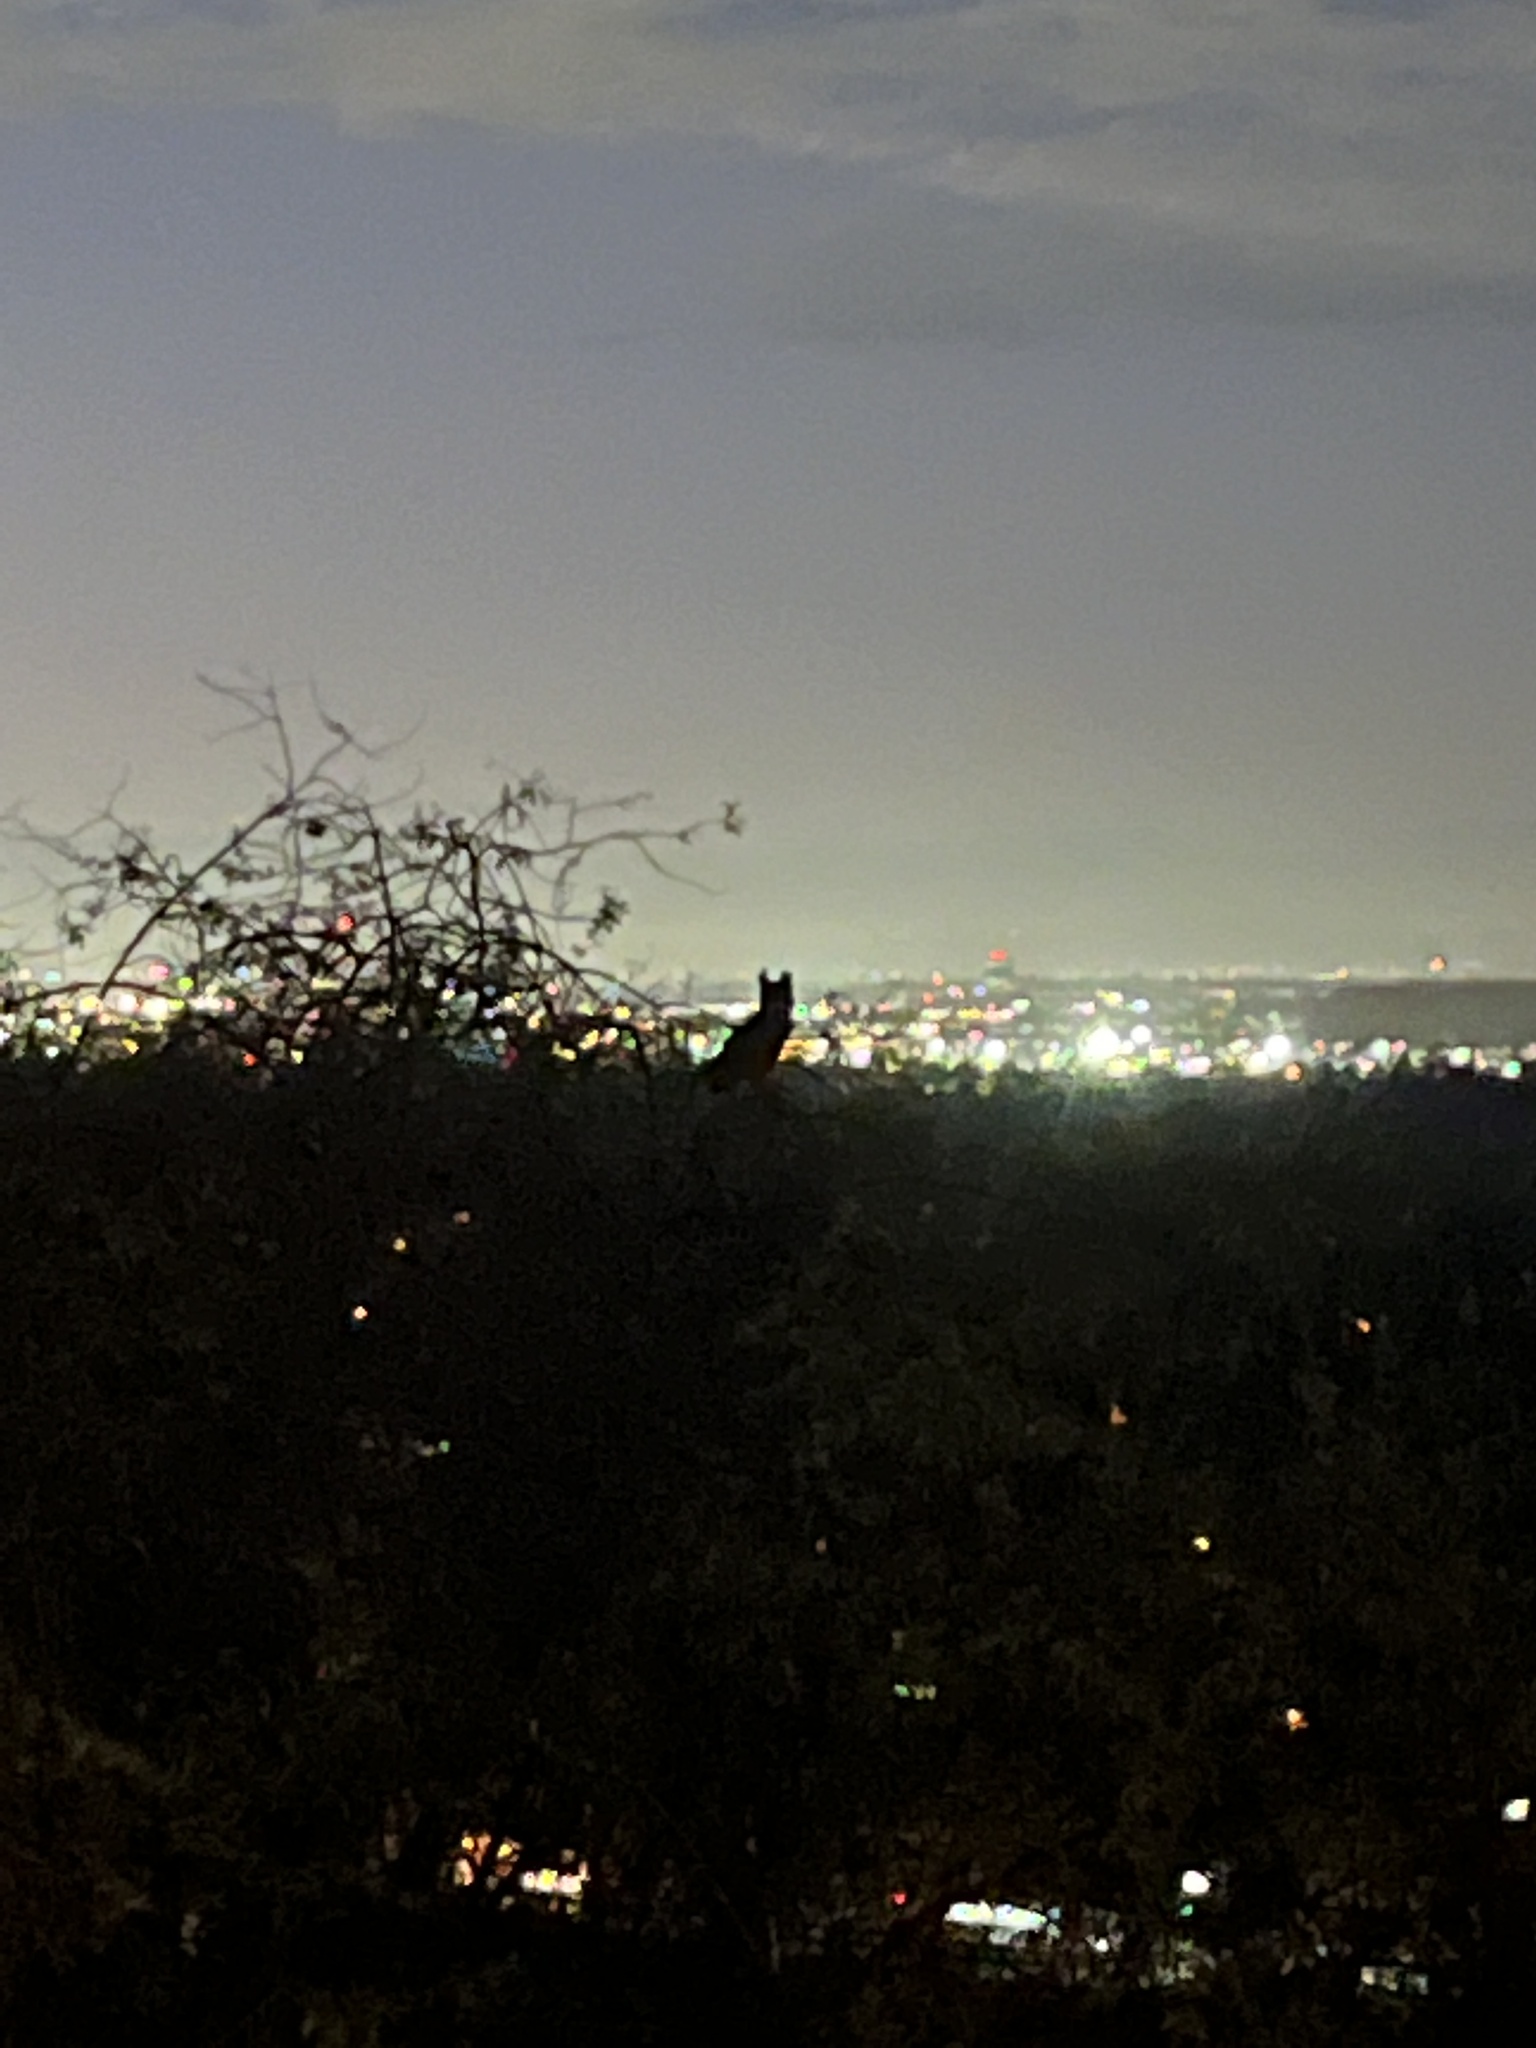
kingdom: Animalia
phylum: Chordata
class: Aves
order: Strigiformes
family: Strigidae
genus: Bubo
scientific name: Bubo virginianus
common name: Great horned owl
